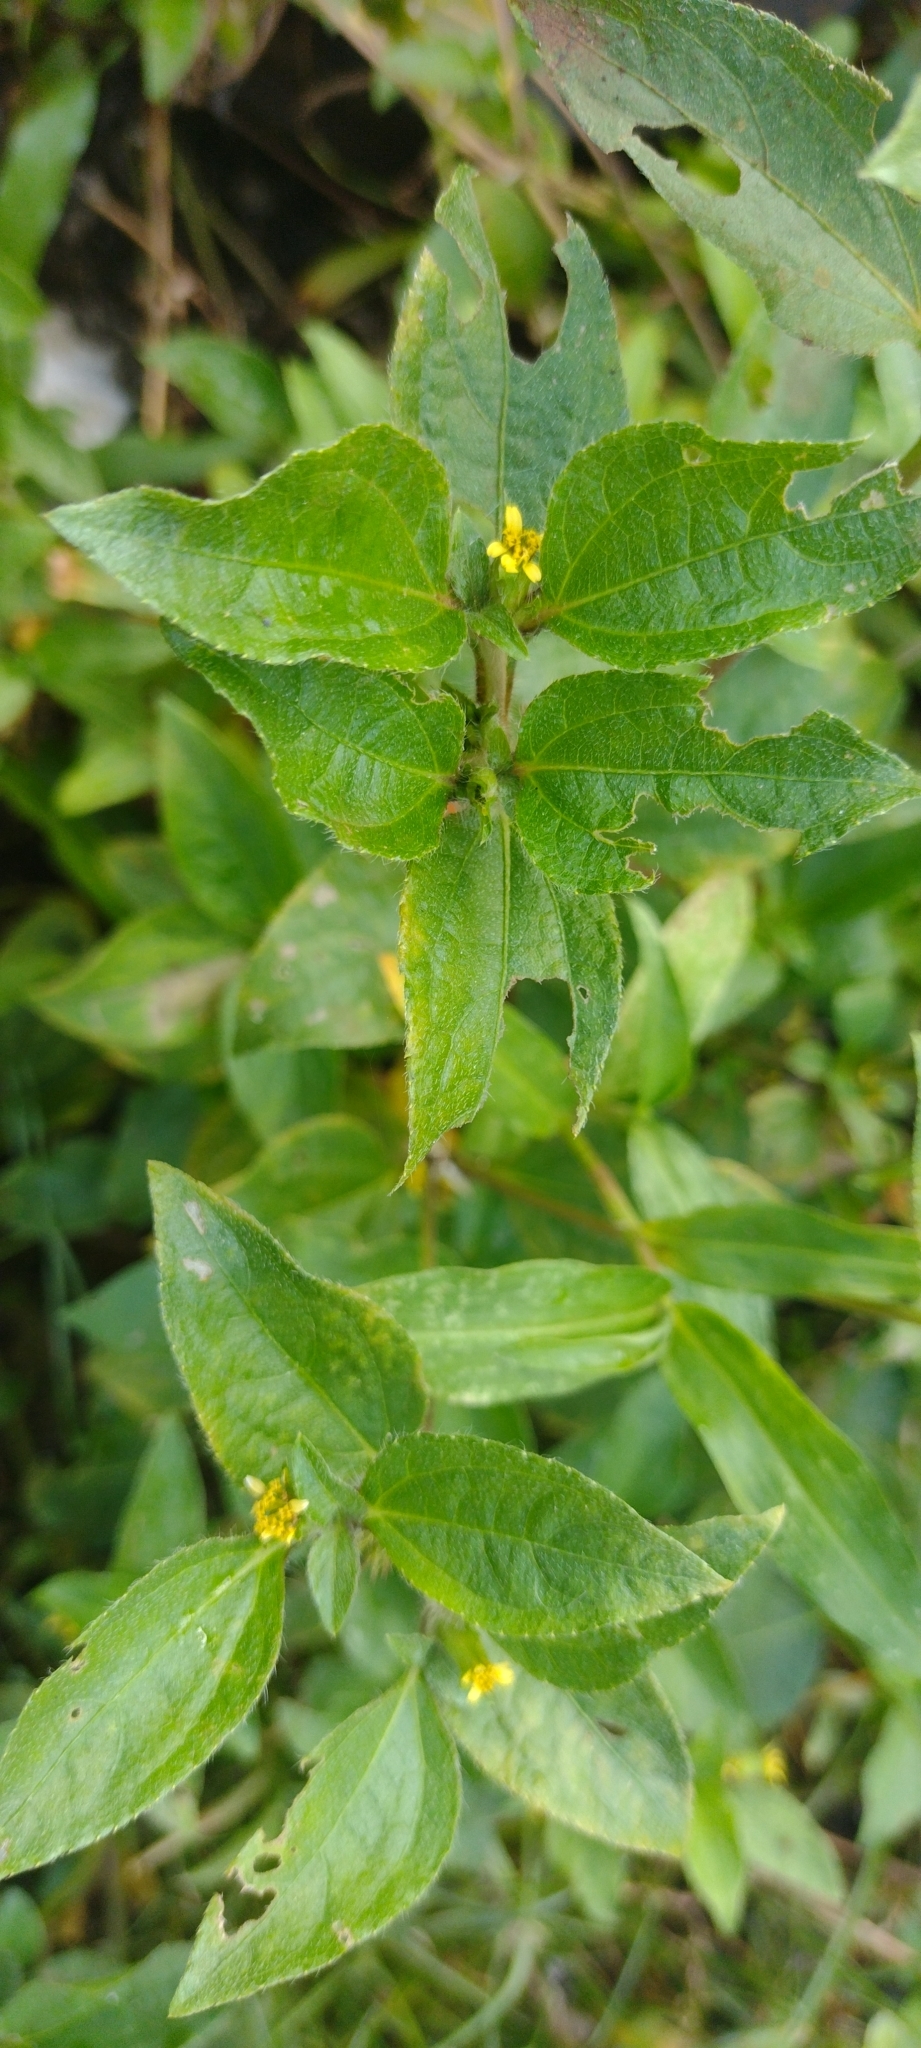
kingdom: Plantae
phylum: Tracheophyta
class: Magnoliopsida
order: Asterales
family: Asteraceae
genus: Synedrella
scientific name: Synedrella nodiflora
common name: Nodeweed
